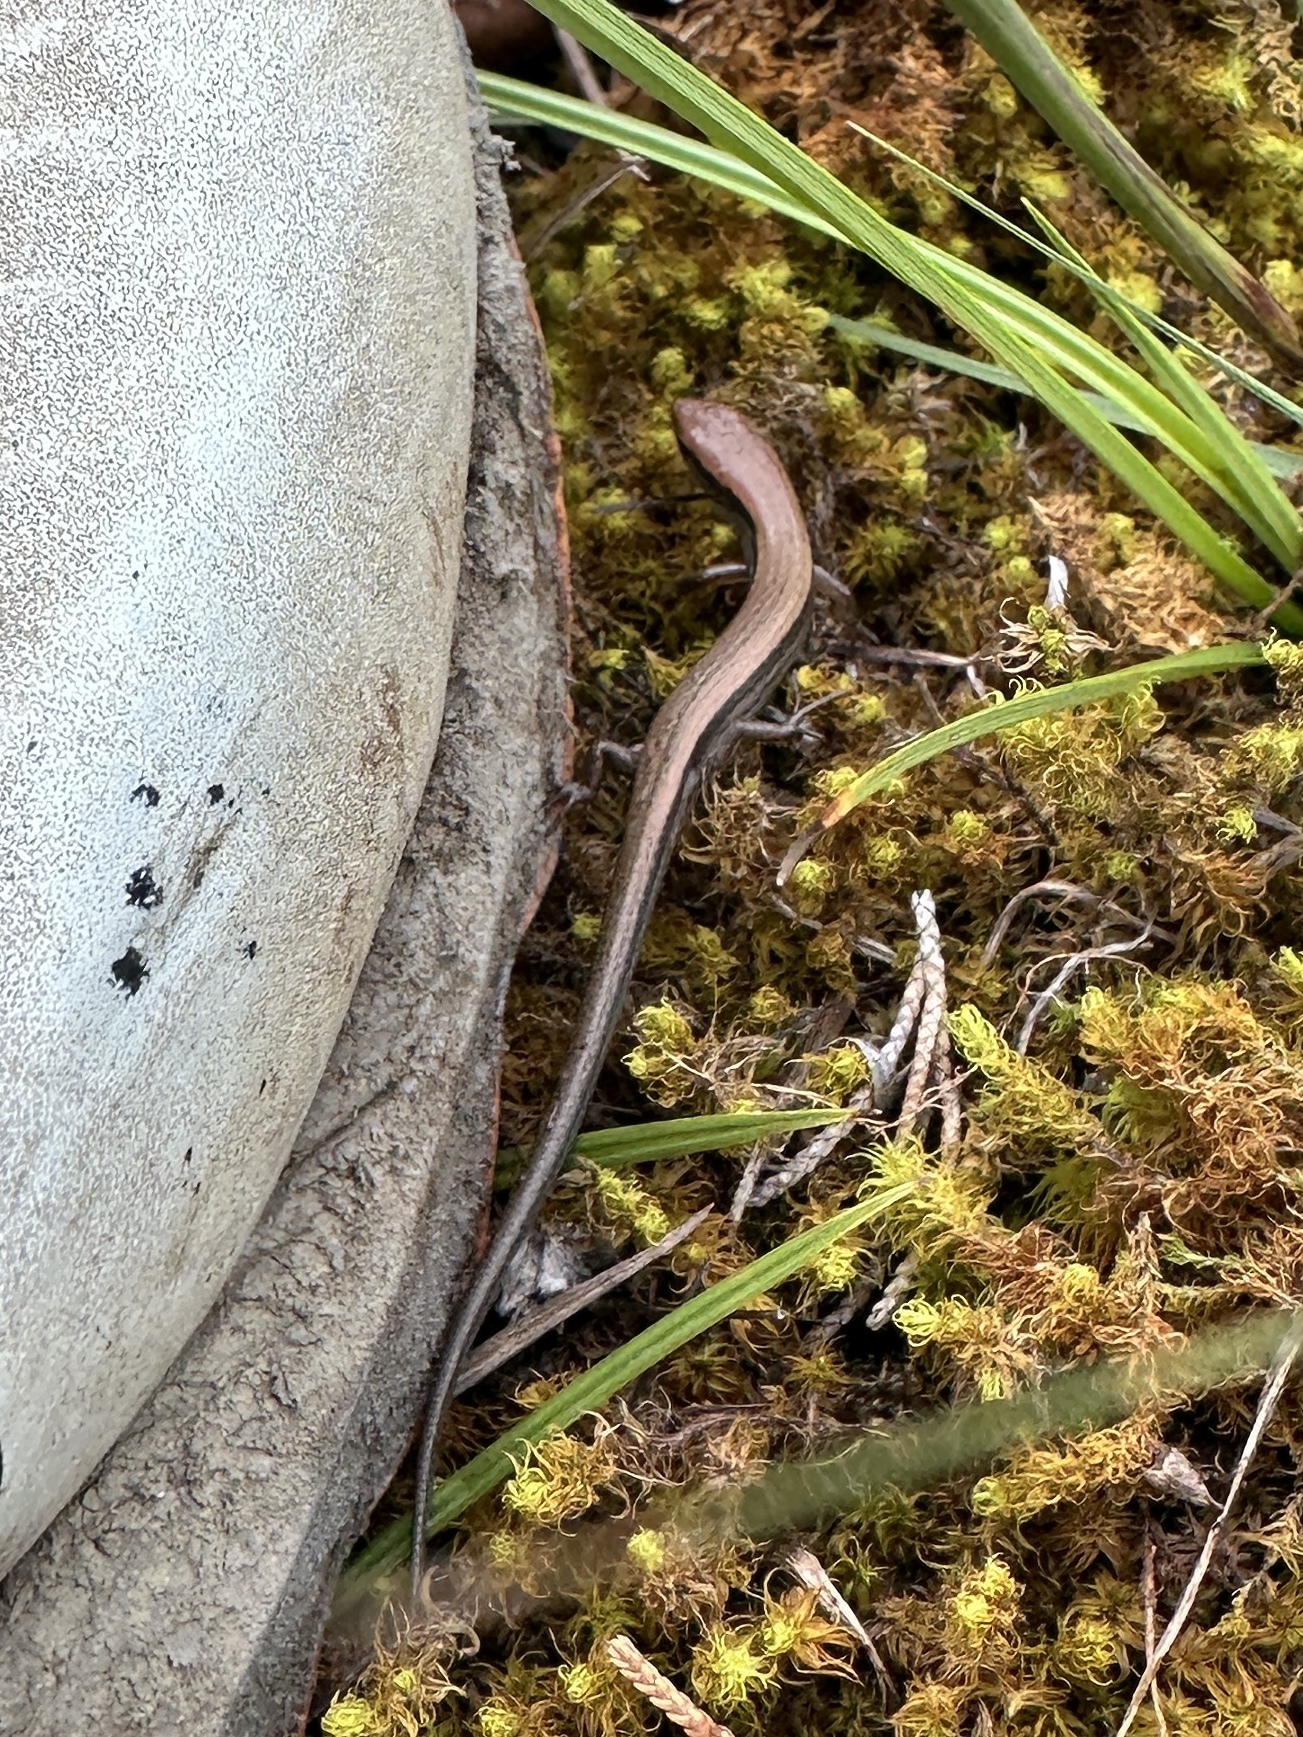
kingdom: Animalia
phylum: Chordata
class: Squamata
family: Scincidae
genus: Scincella
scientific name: Scincella lateralis
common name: Ground skink
